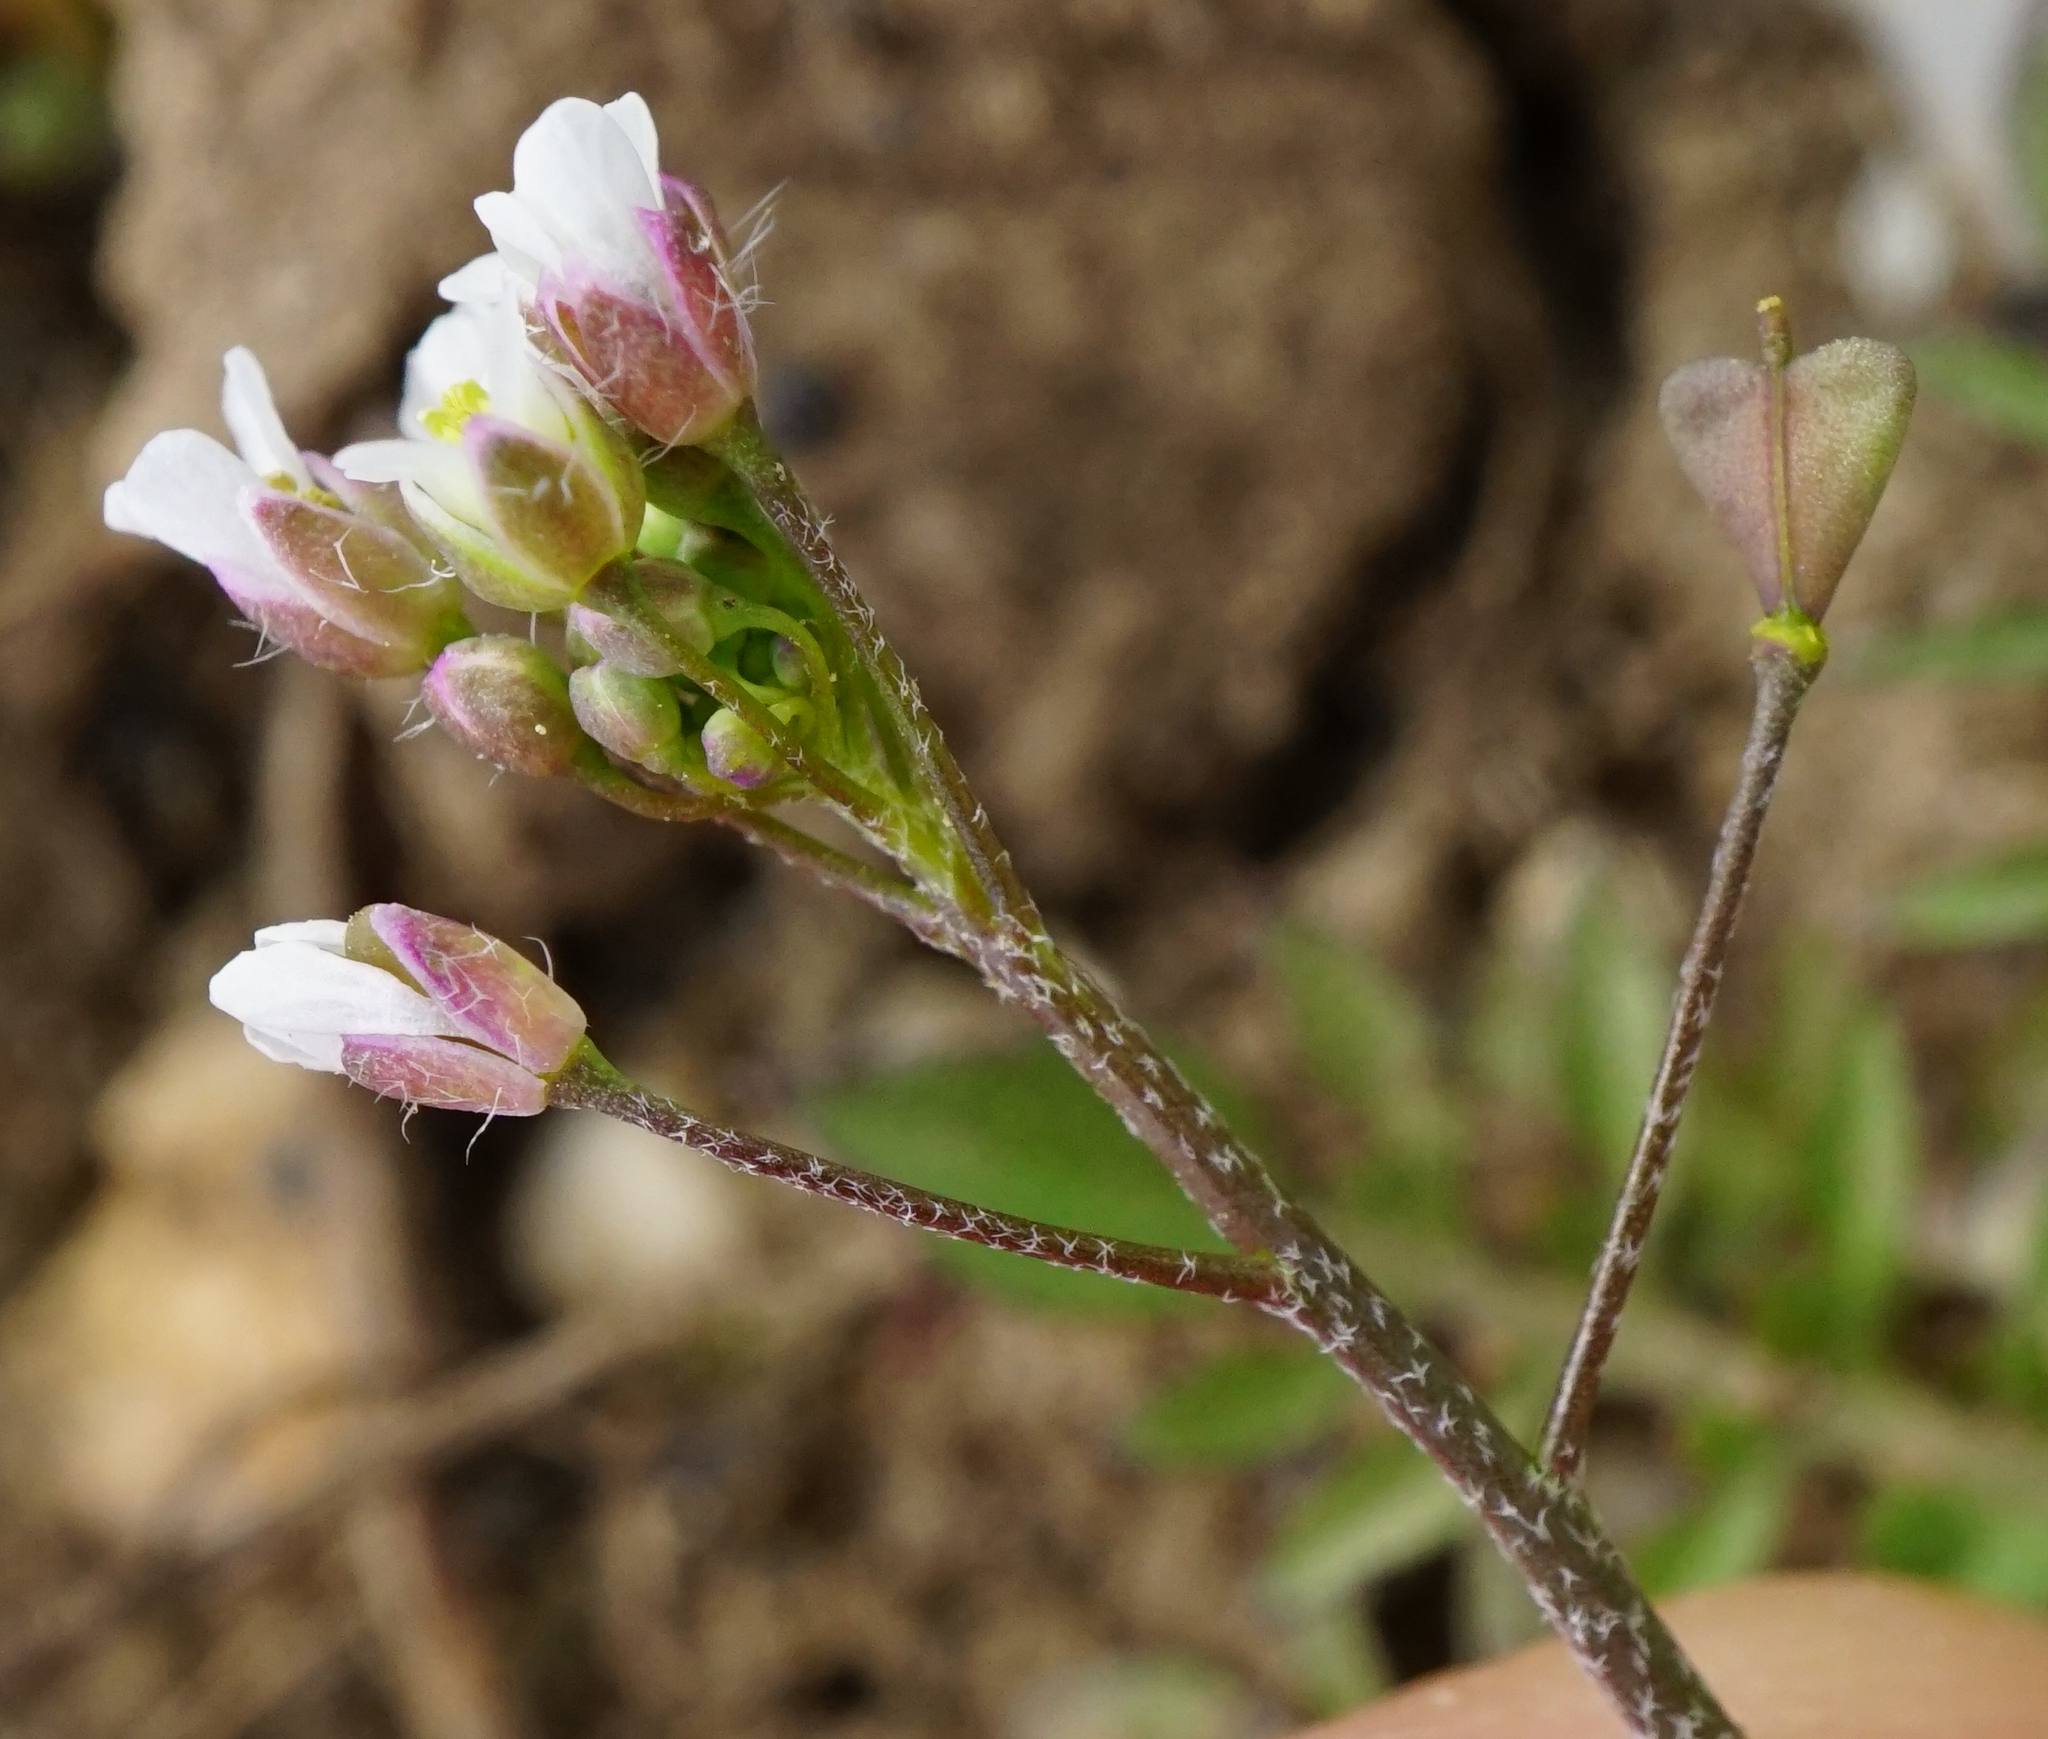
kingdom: Plantae
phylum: Tracheophyta
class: Magnoliopsida
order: Brassicales
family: Brassicaceae
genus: Capsella
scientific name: Capsella bursa-pastoris
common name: Shepherd's purse
